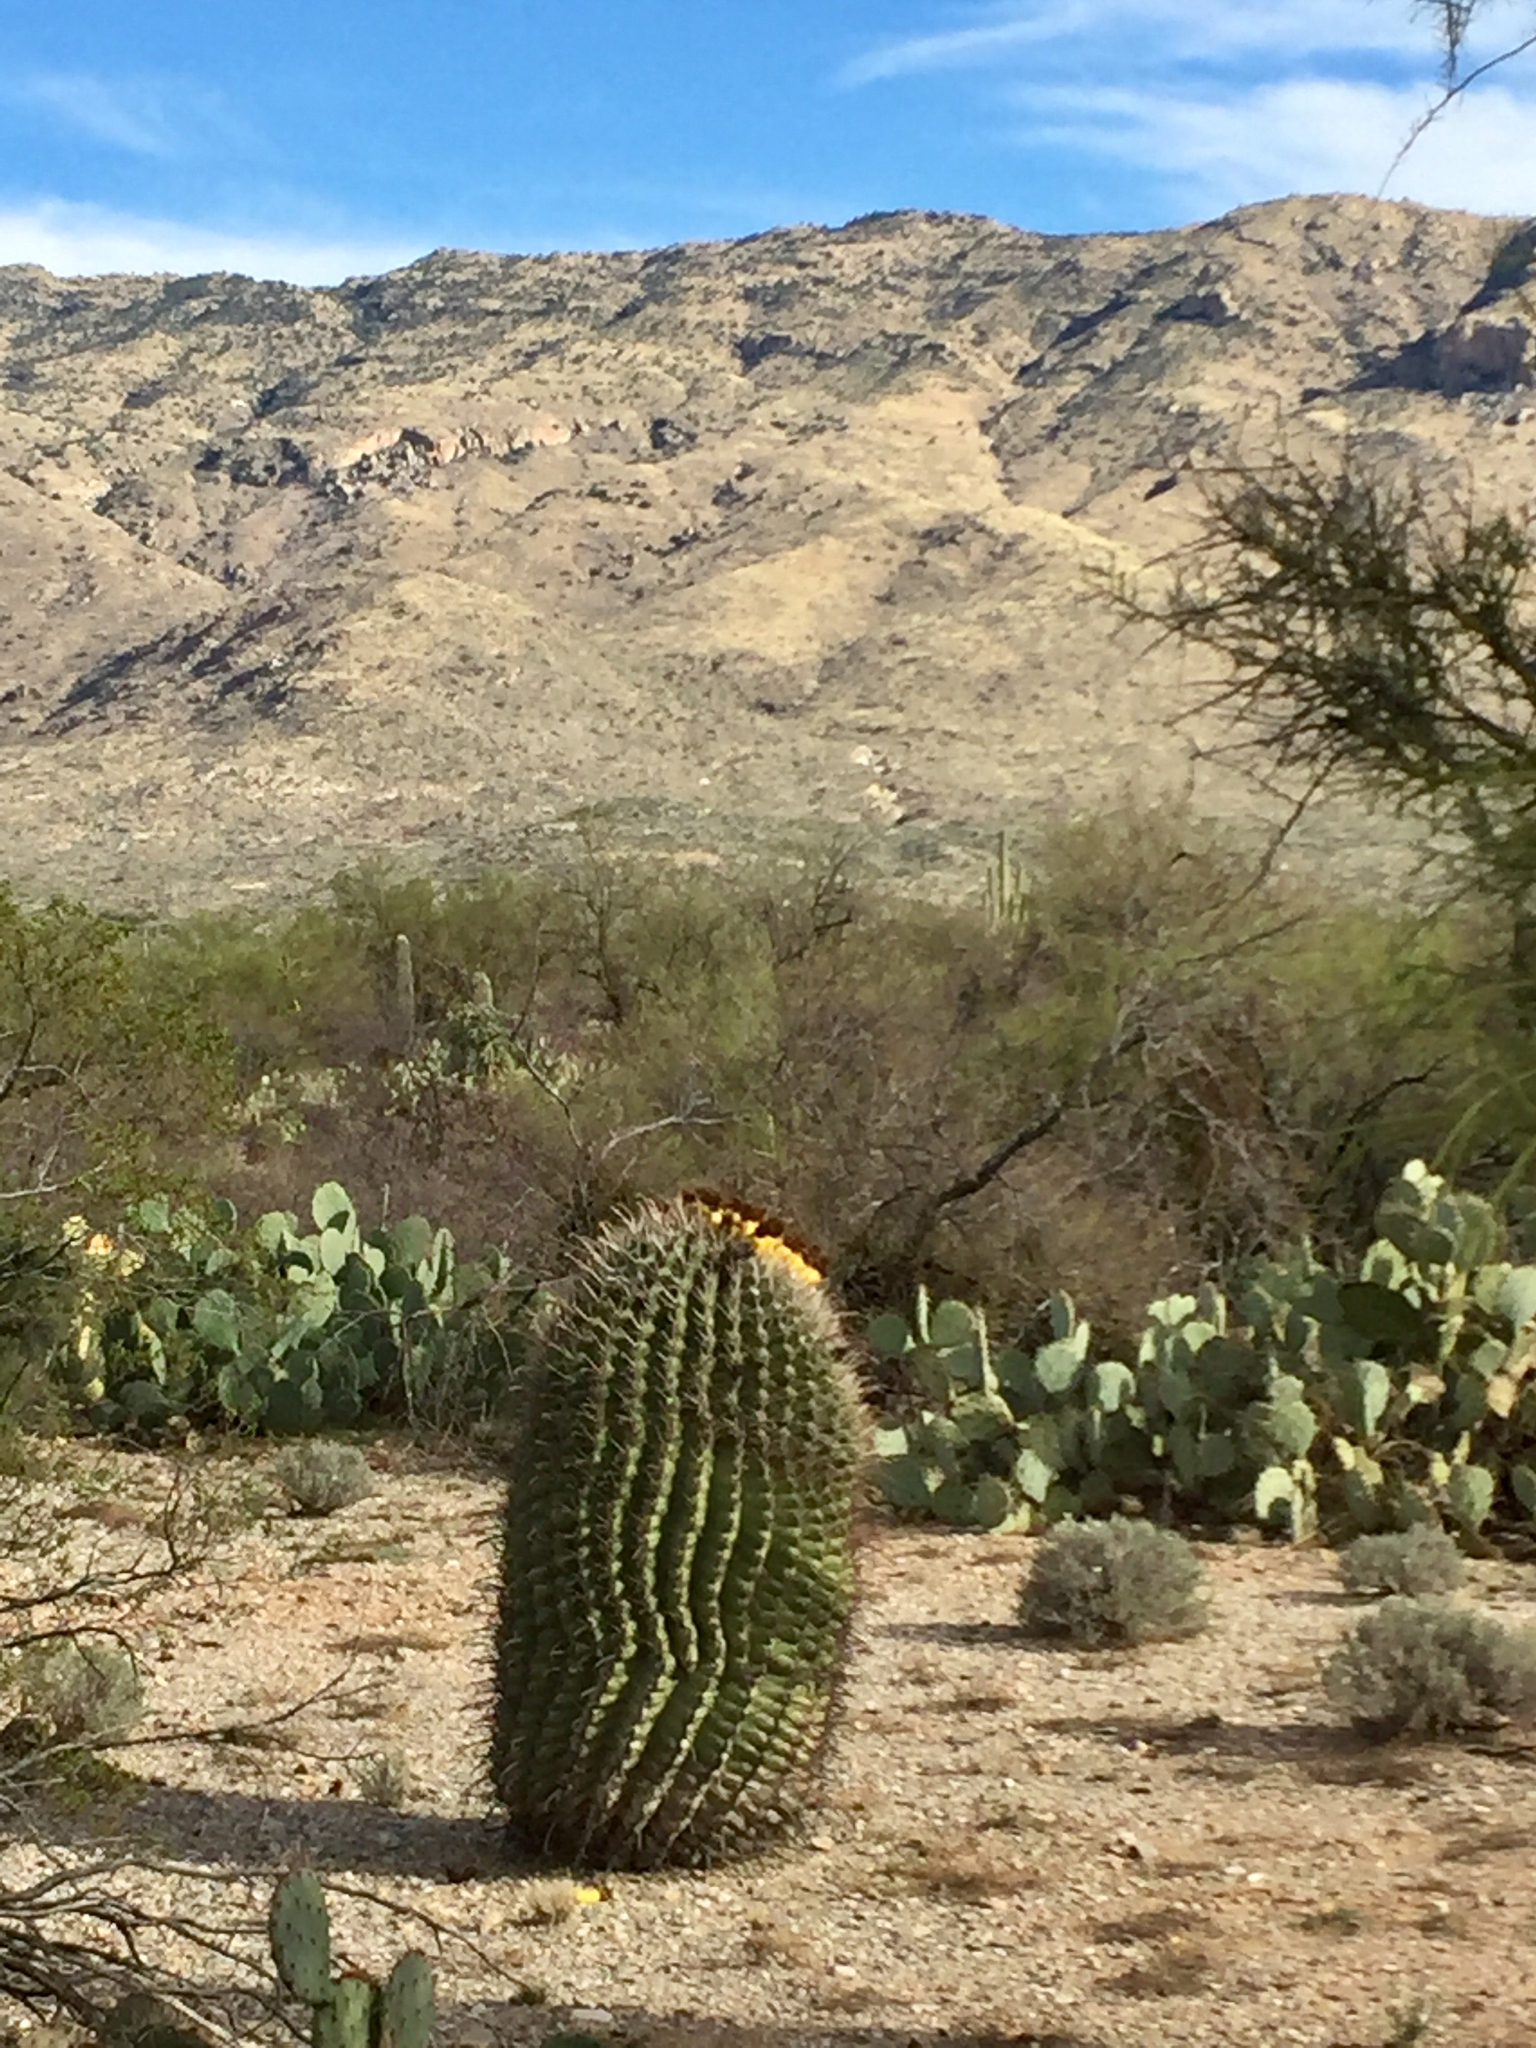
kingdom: Plantae
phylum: Tracheophyta
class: Magnoliopsida
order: Caryophyllales
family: Cactaceae
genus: Ferocactus
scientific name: Ferocactus wislizeni
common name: Candy barrel cactus
